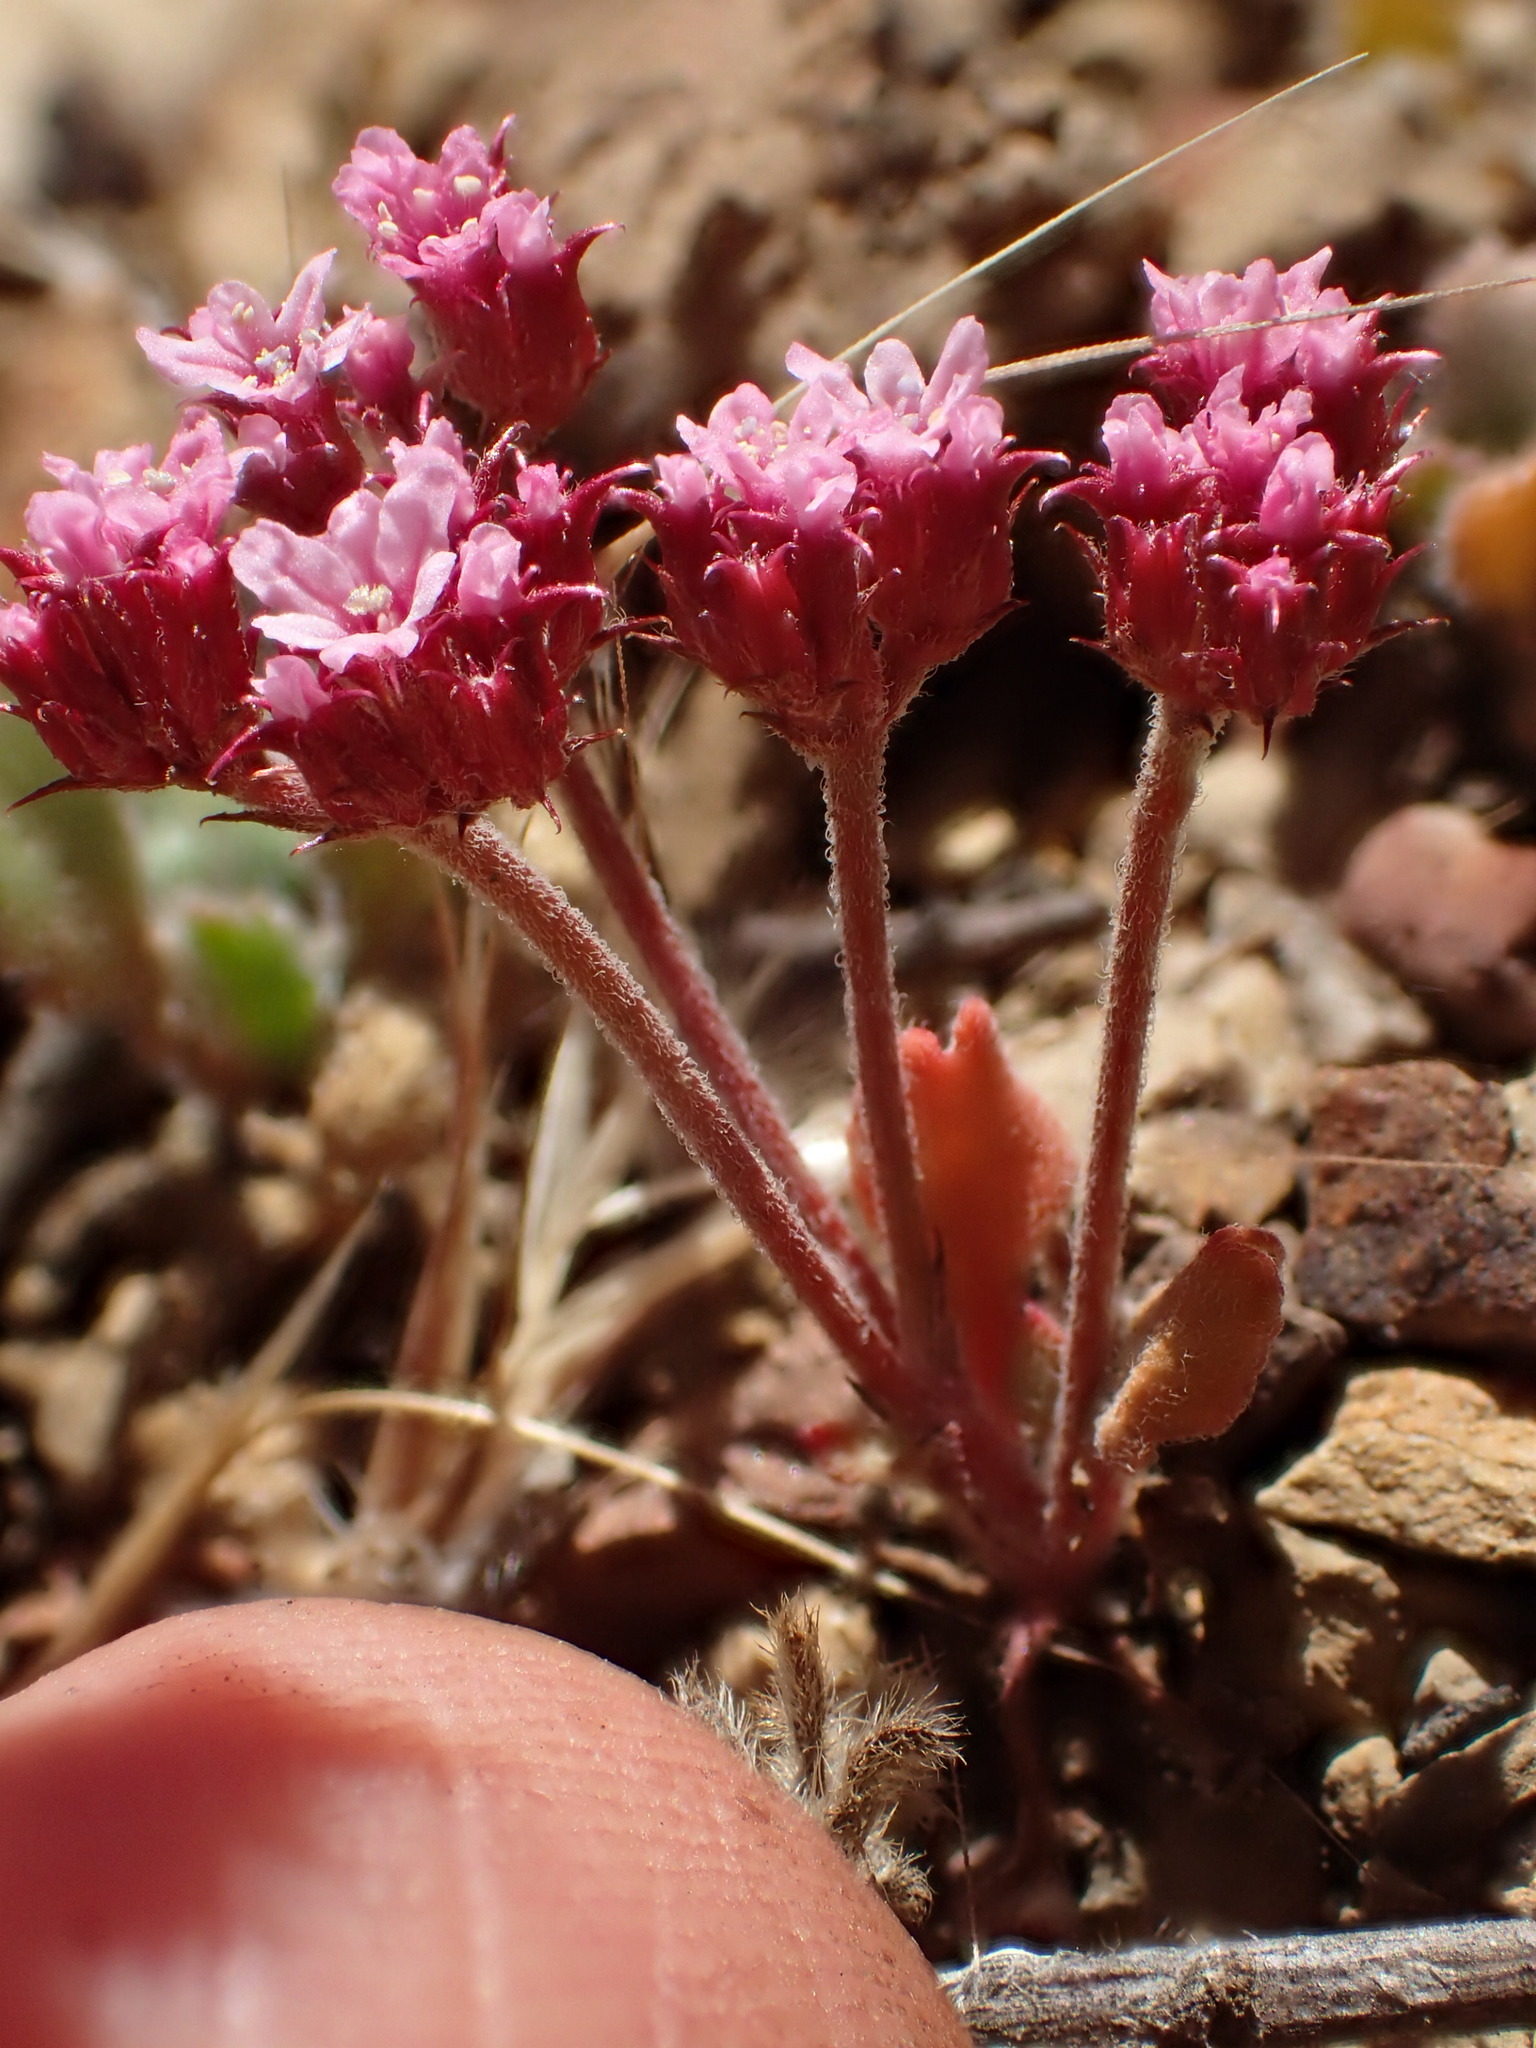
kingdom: Plantae
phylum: Tracheophyta
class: Magnoliopsida
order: Caryophyllales
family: Polygonaceae
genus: Chorizanthe
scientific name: Chorizanthe staticoides
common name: Turkish rugging
